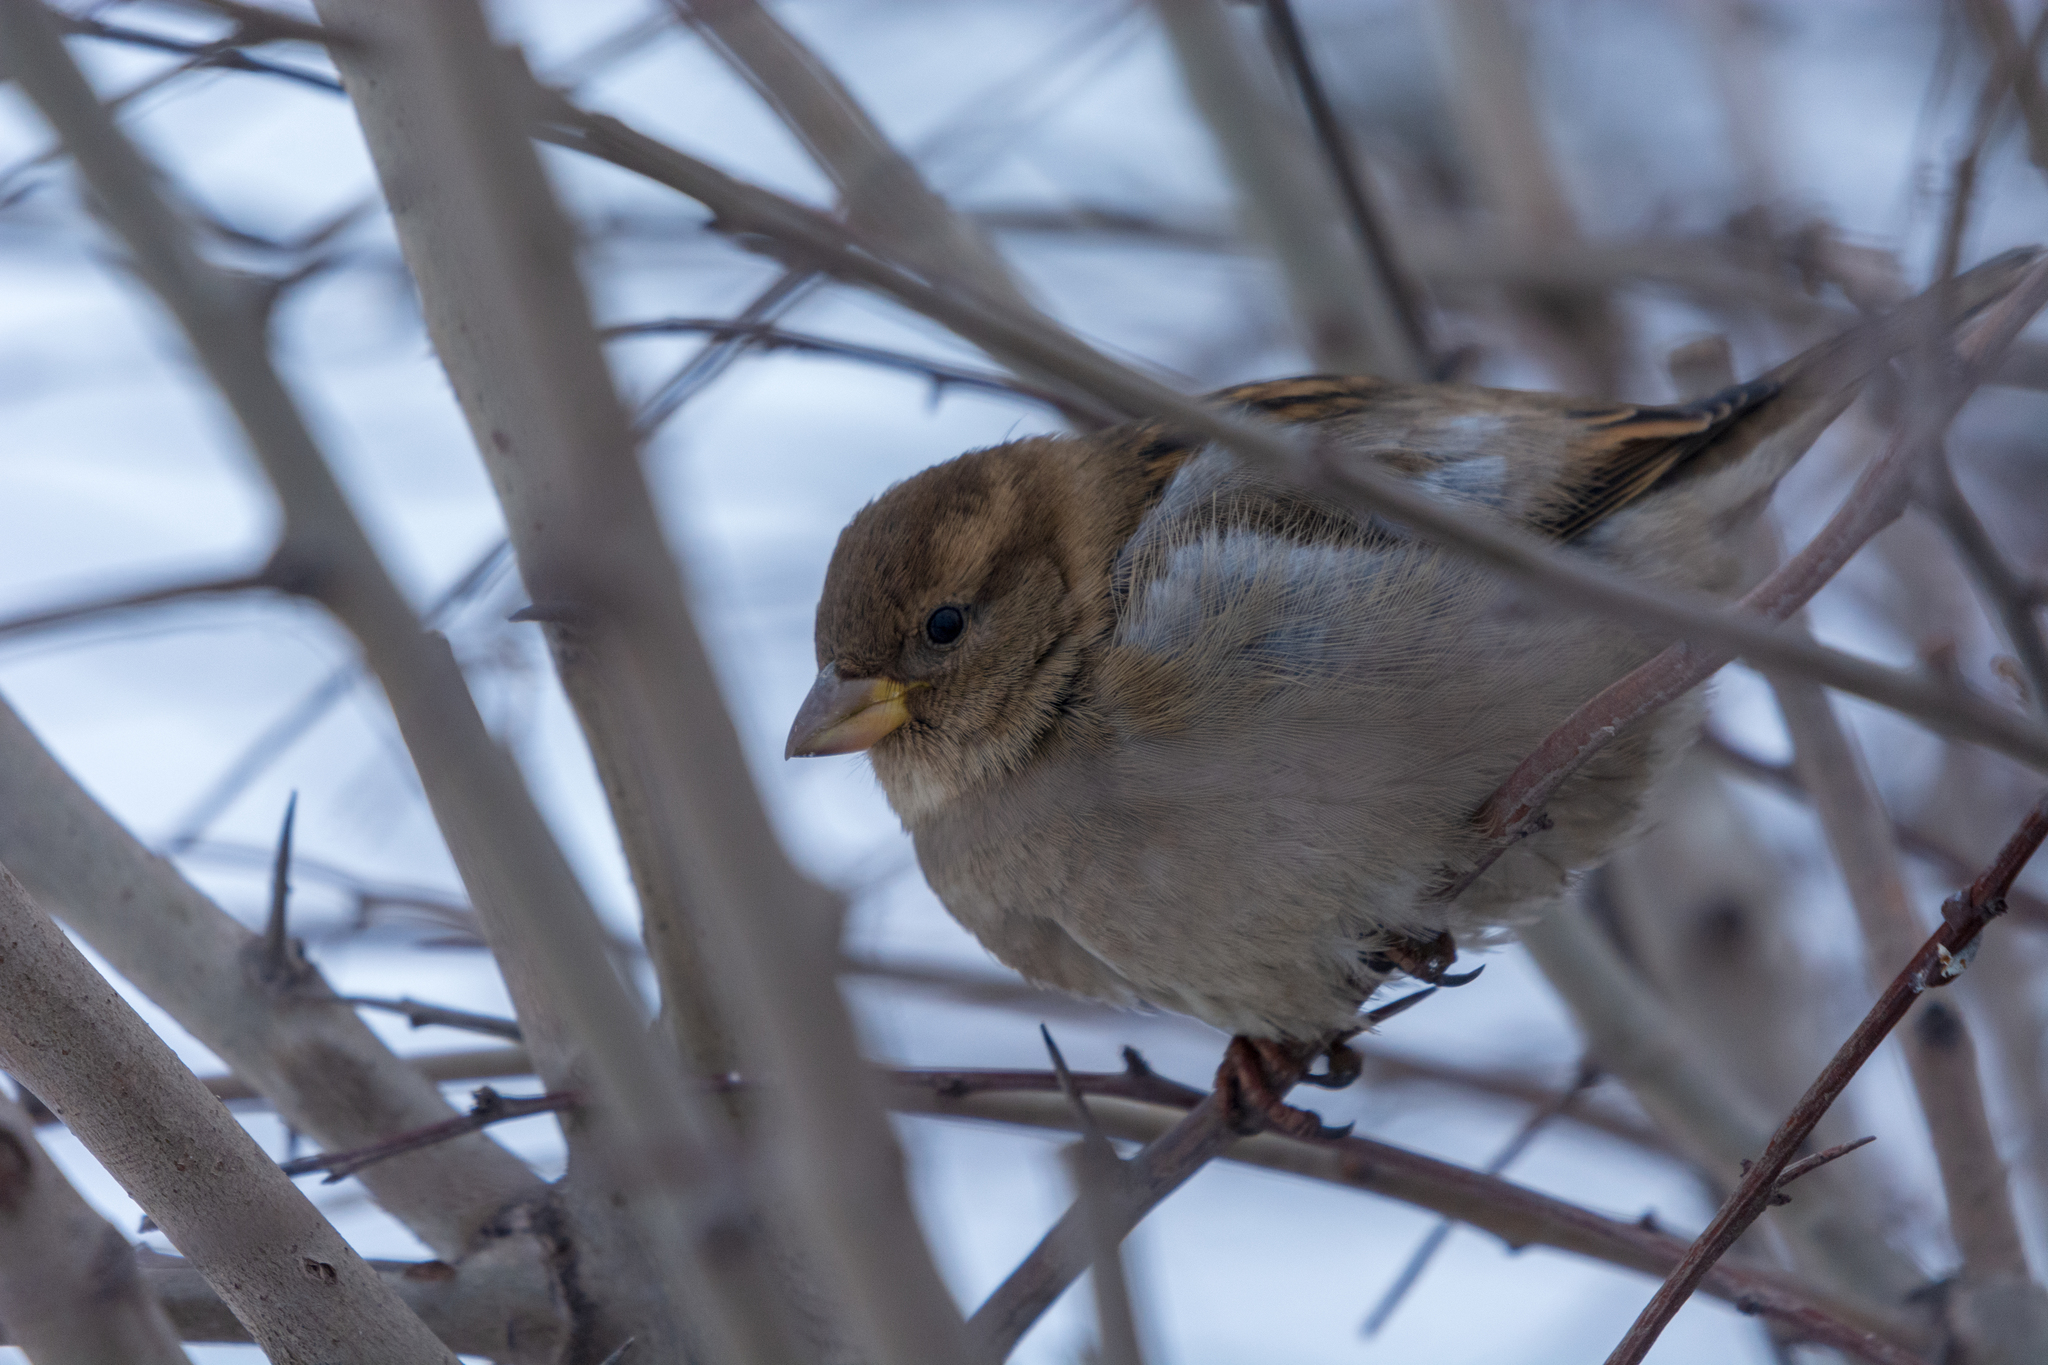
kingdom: Animalia
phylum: Chordata
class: Aves
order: Passeriformes
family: Passeridae
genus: Passer
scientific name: Passer domesticus
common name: House sparrow
